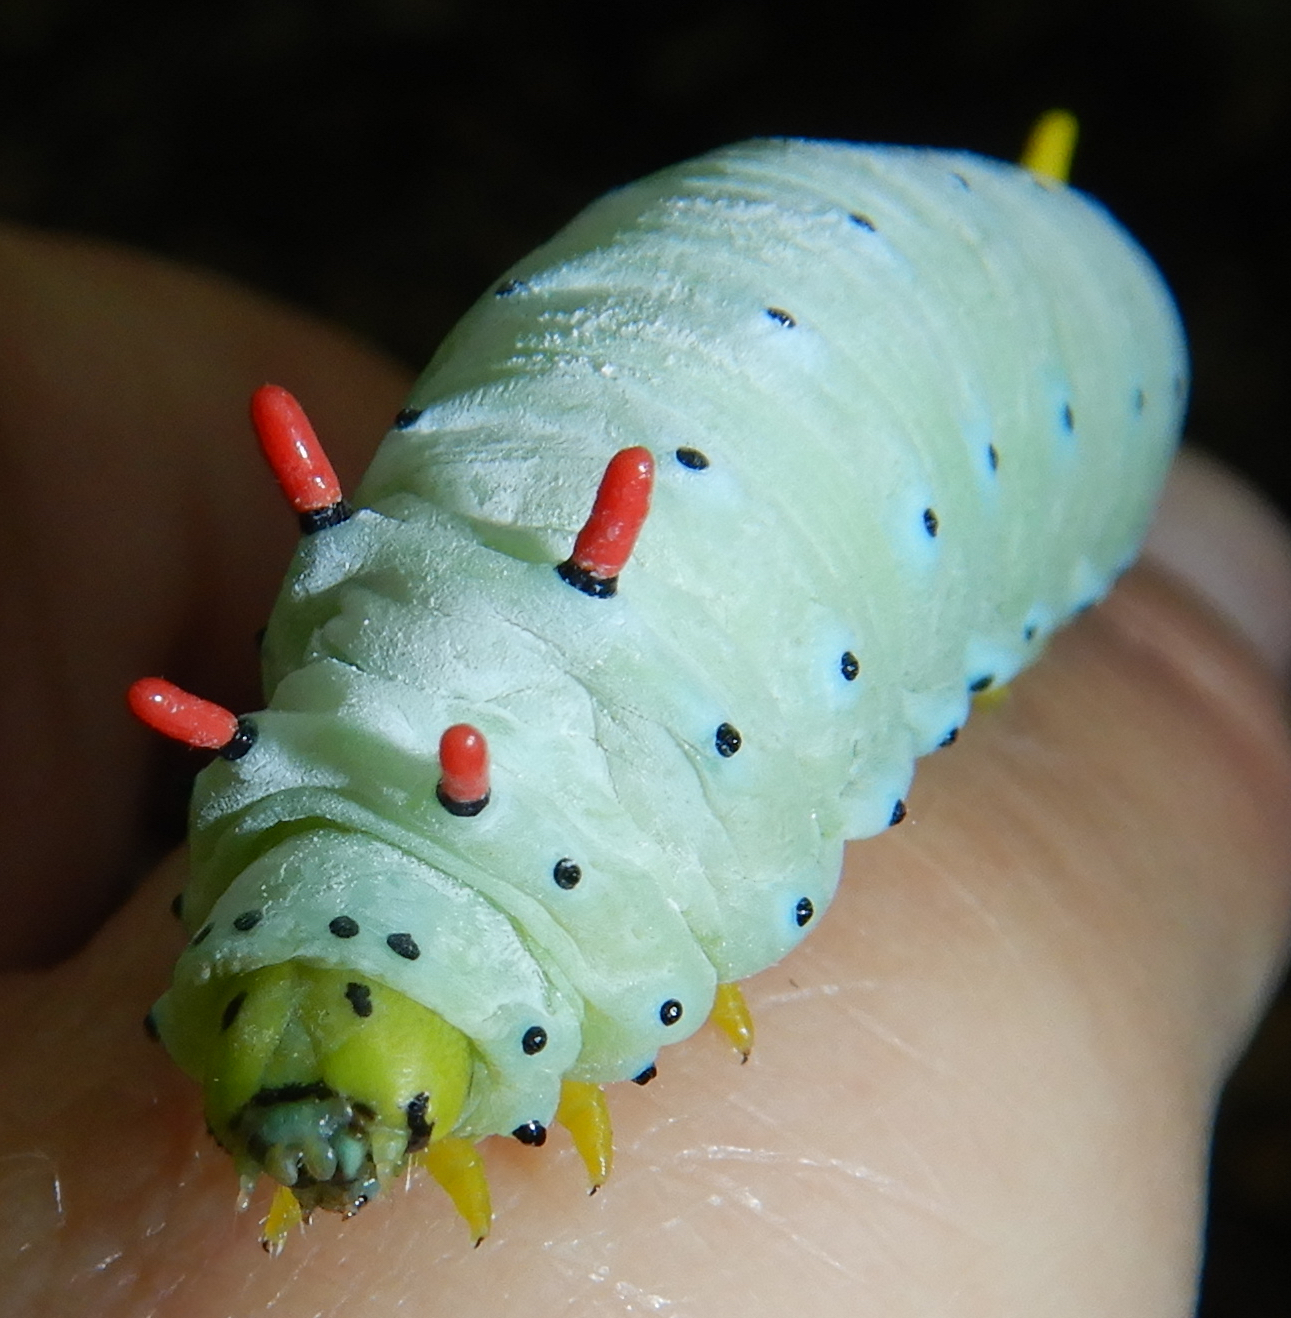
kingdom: Animalia
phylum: Arthropoda
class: Insecta
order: Lepidoptera
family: Saturniidae
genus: Callosamia
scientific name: Callosamia promethea
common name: Promethea silkmoth
